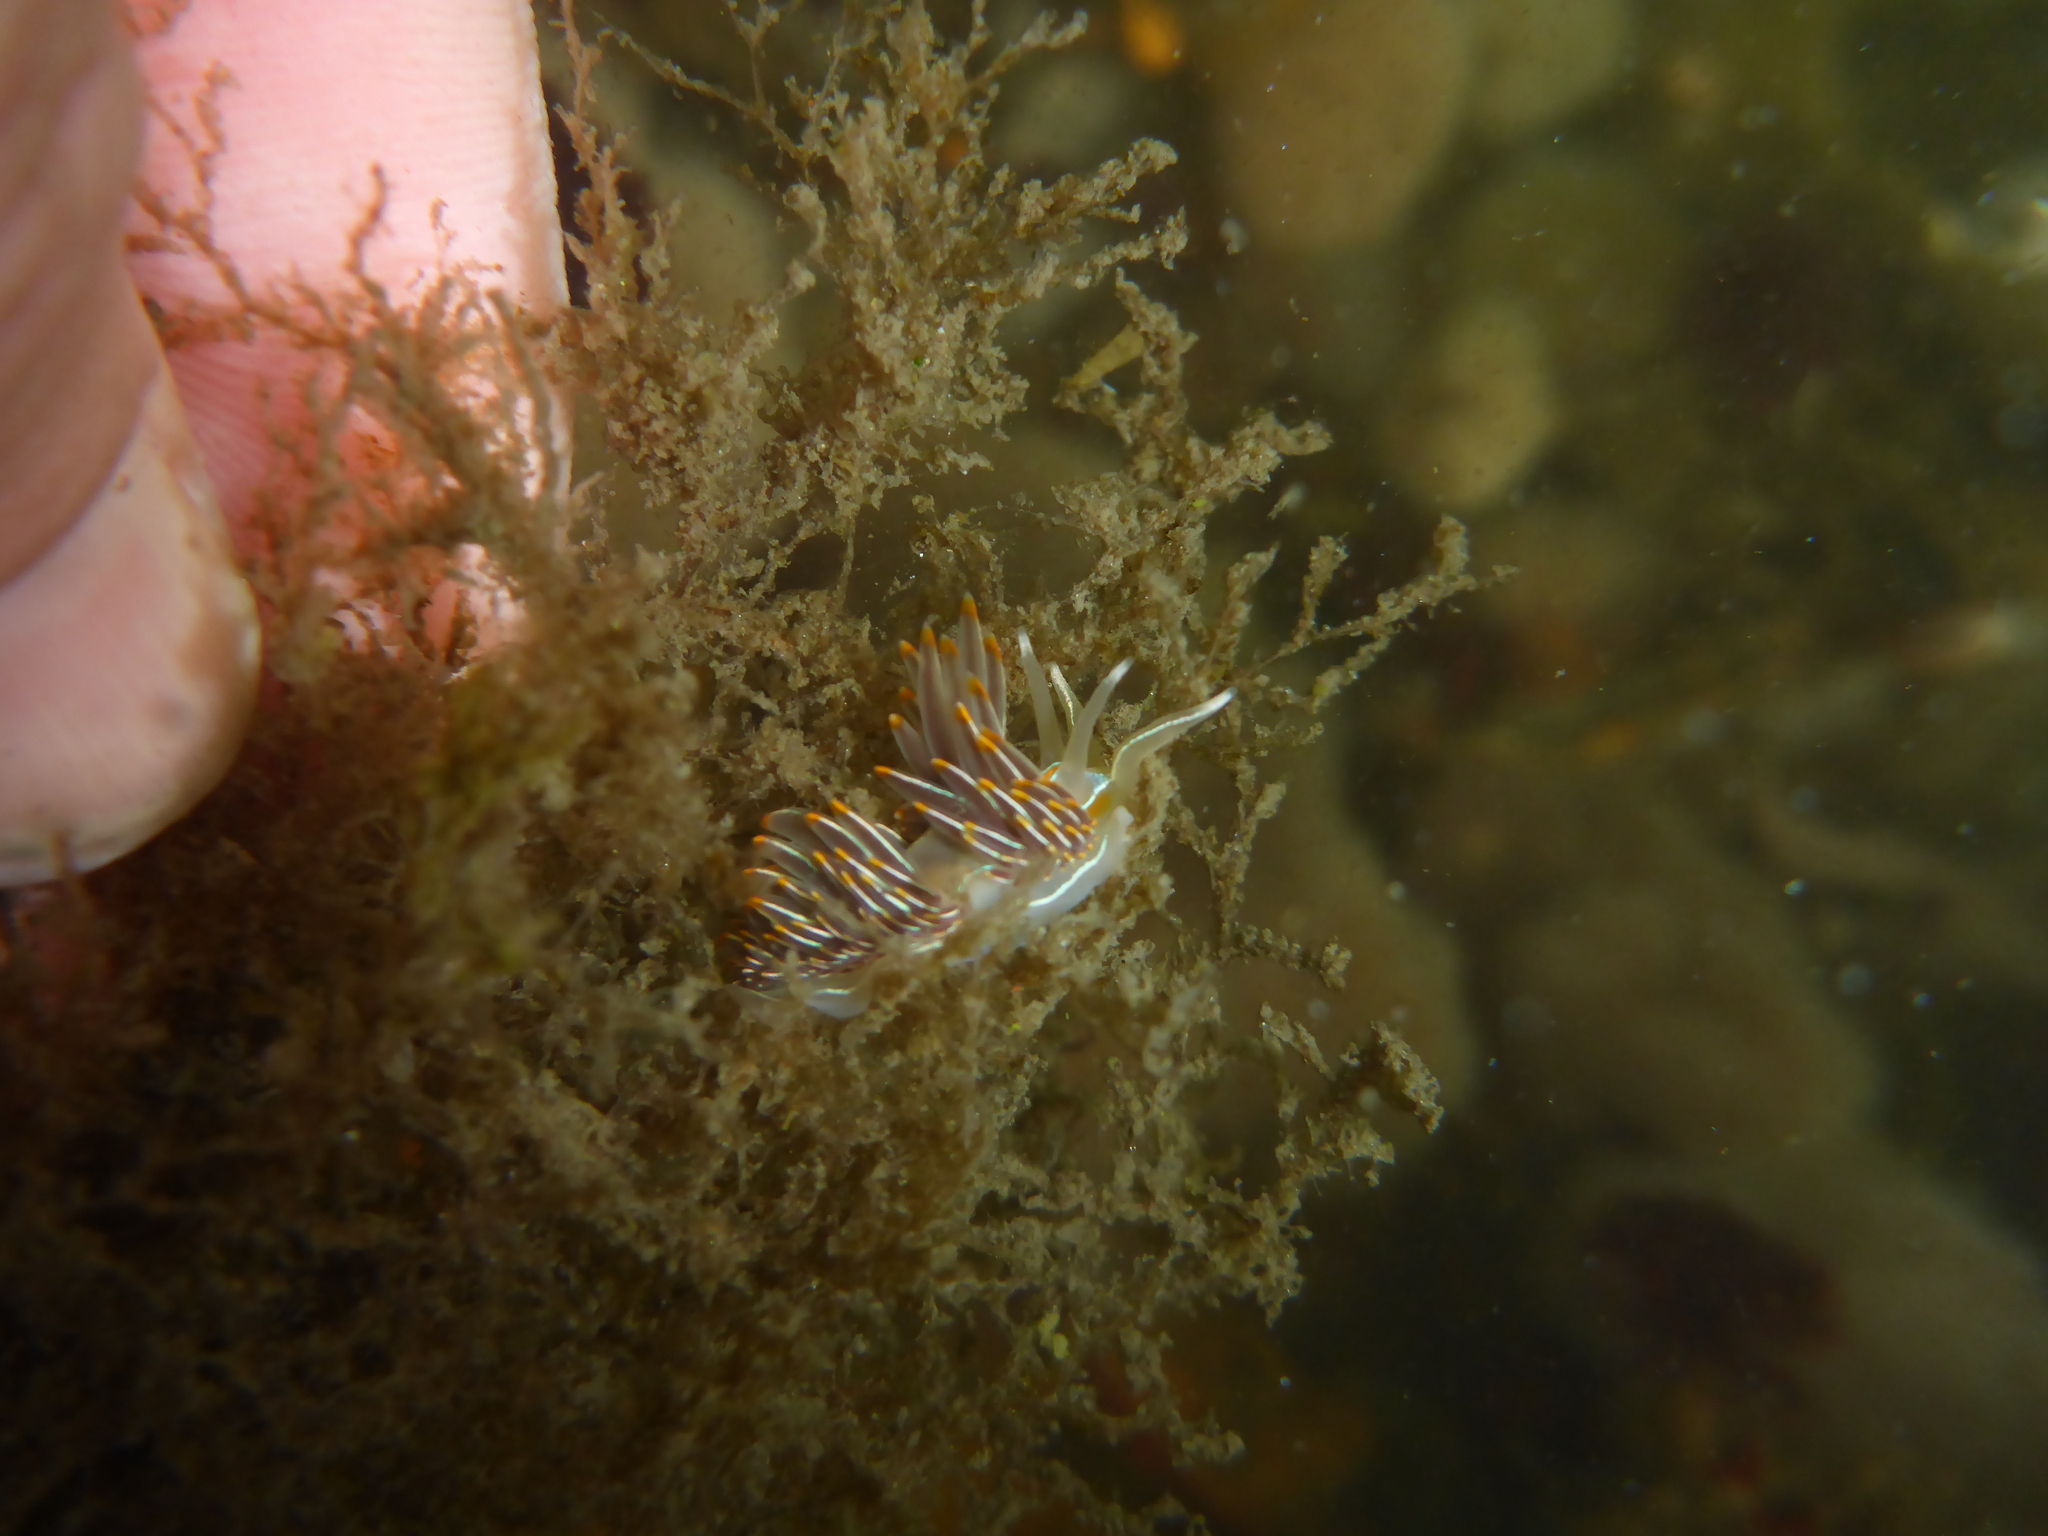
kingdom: Animalia
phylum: Mollusca
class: Gastropoda
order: Nudibranchia
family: Myrrhinidae
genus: Hermissenda
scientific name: Hermissenda crassicornis
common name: Hermissenda
